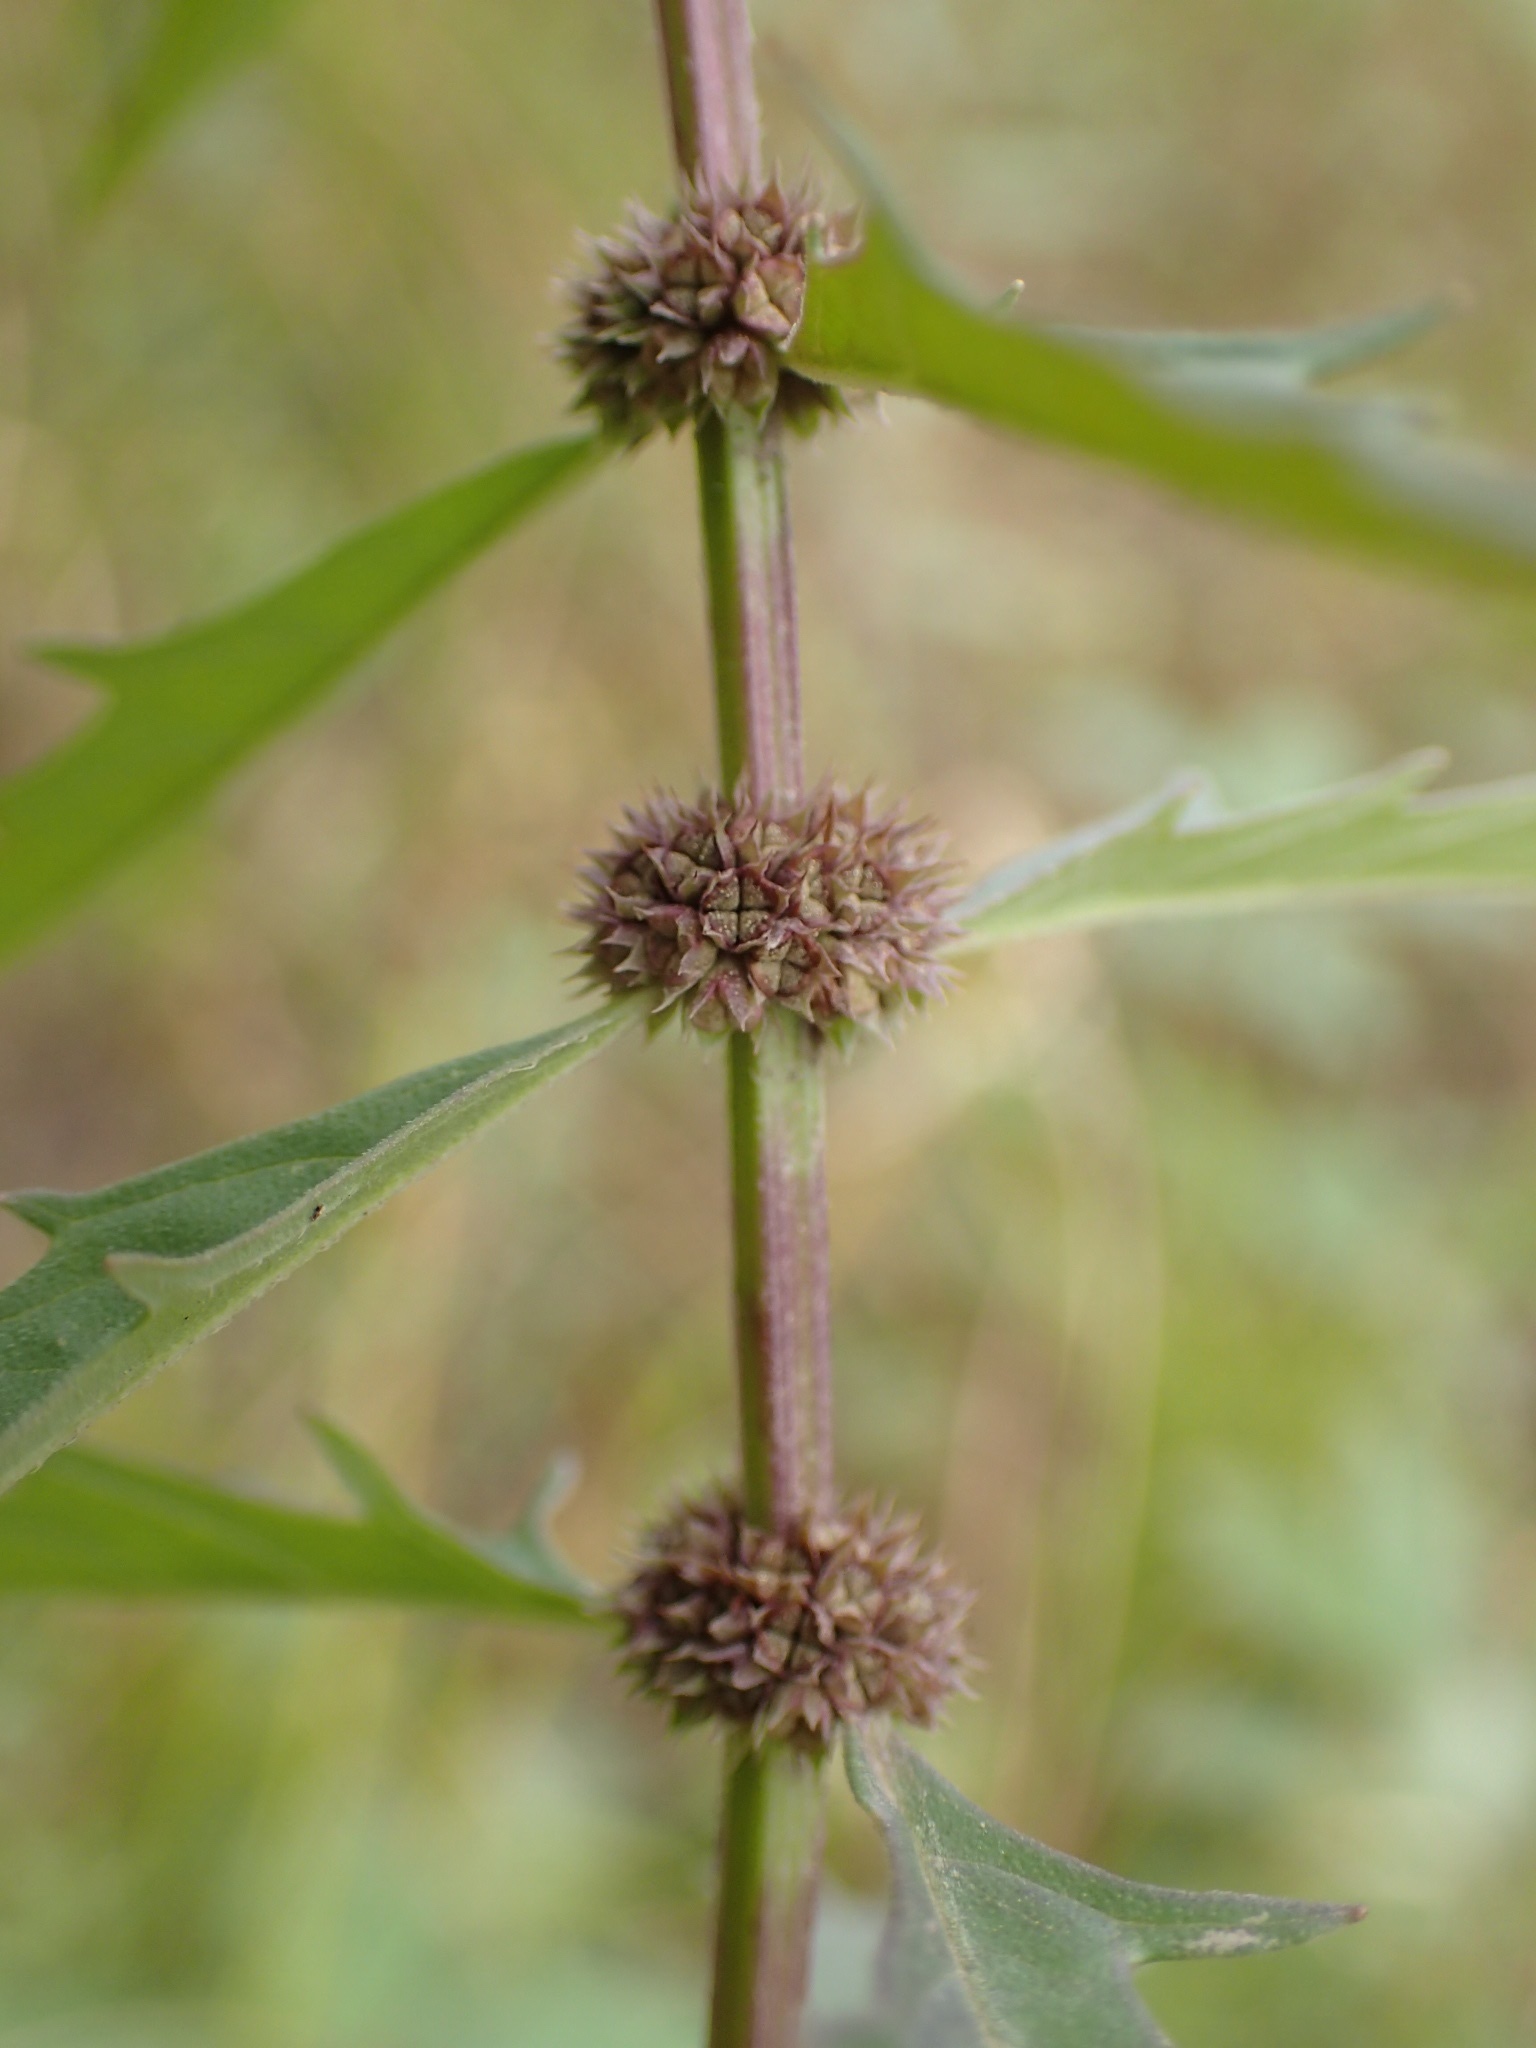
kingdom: Plantae
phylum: Tracheophyta
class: Magnoliopsida
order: Lamiales
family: Lamiaceae
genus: Lycopus
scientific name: Lycopus americanus
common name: American bugleweed
